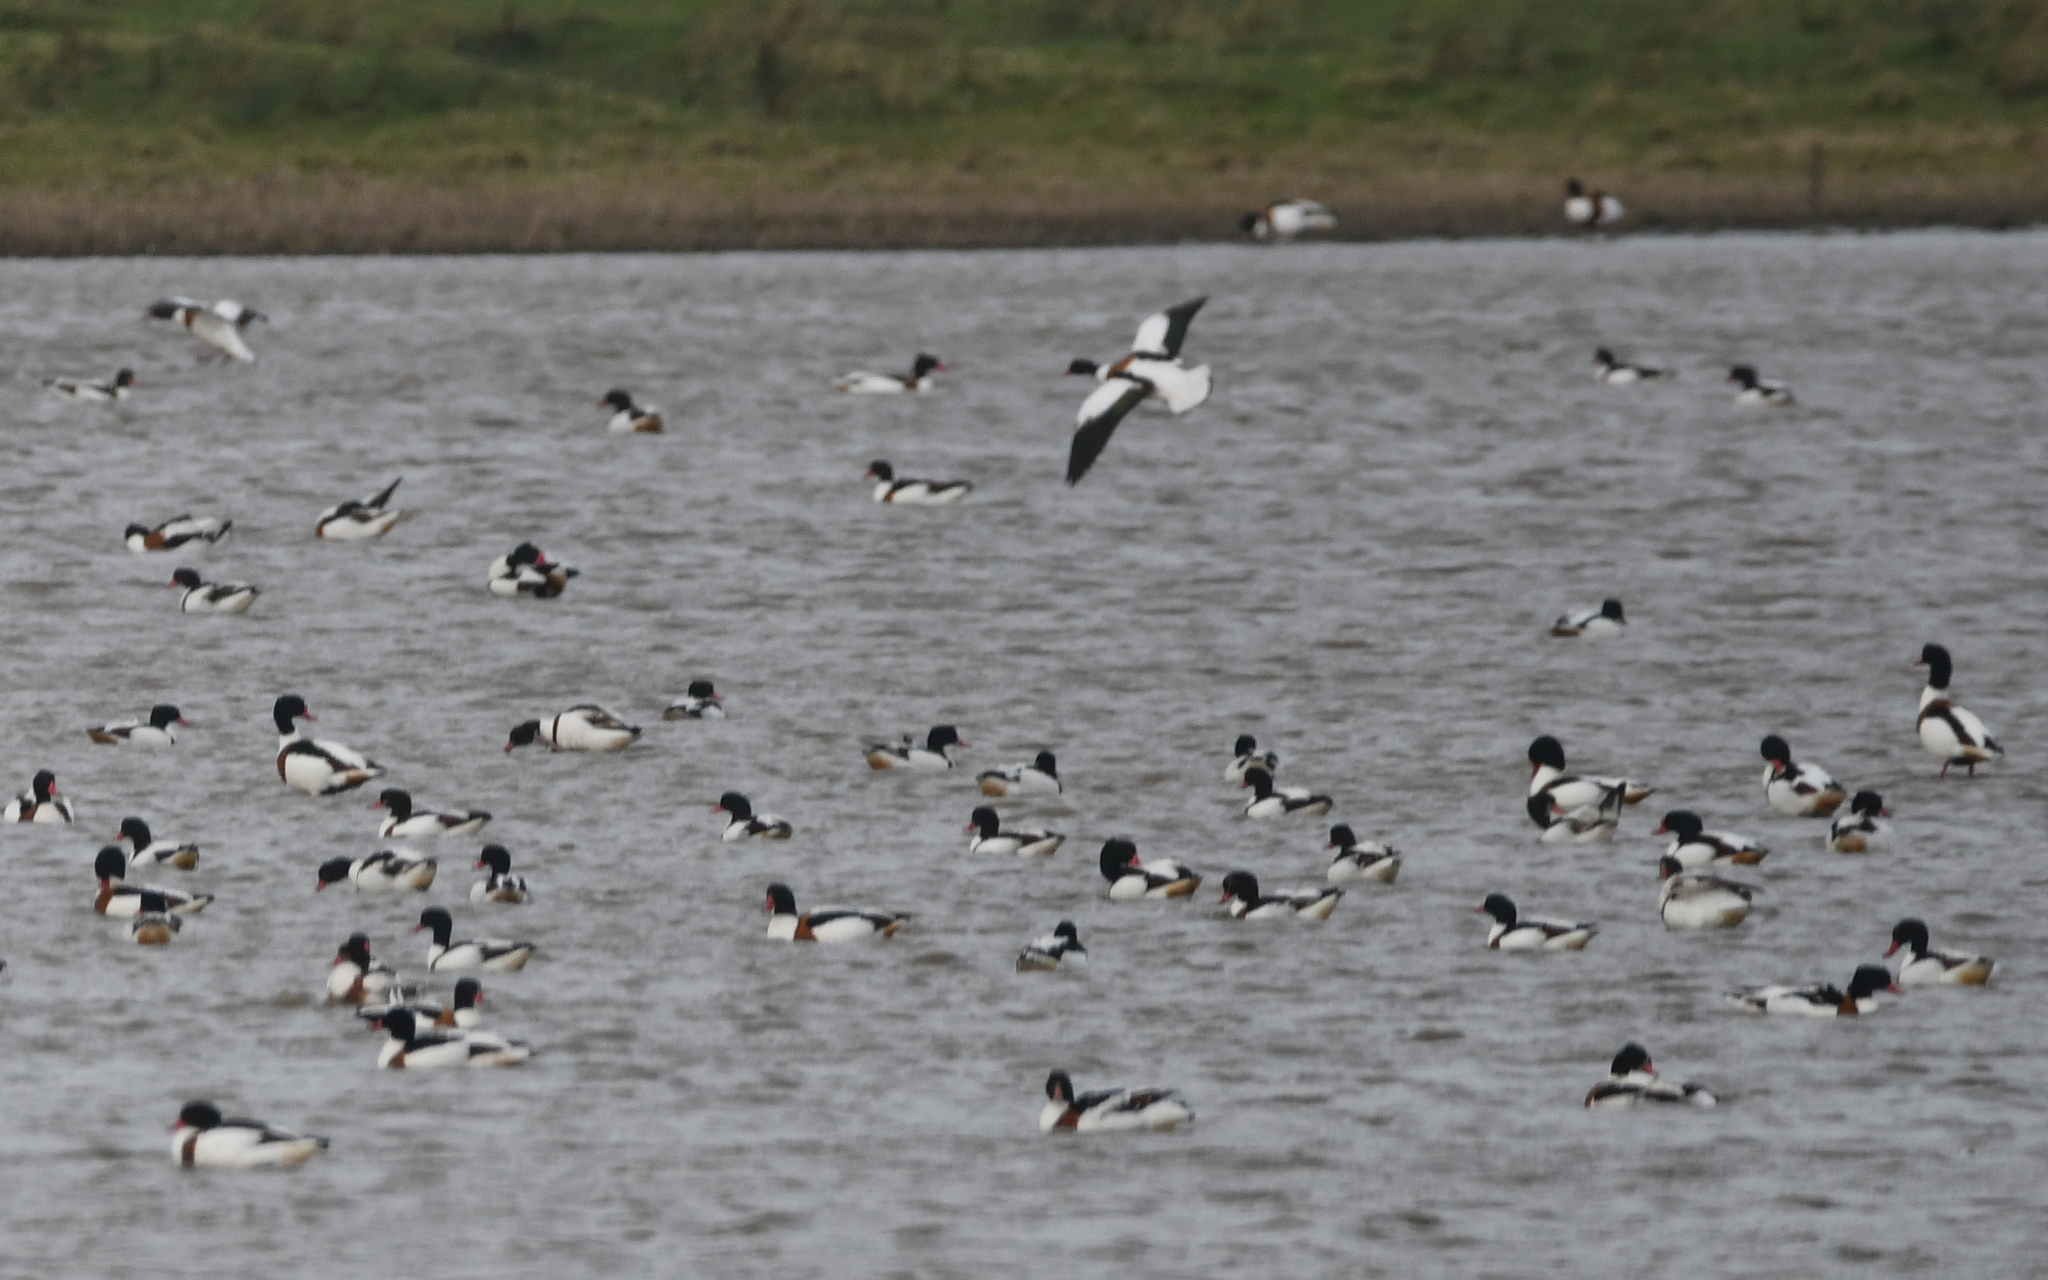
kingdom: Animalia
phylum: Chordata
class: Aves
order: Anseriformes
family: Anatidae
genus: Tadorna
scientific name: Tadorna tadorna
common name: Common shelduck
